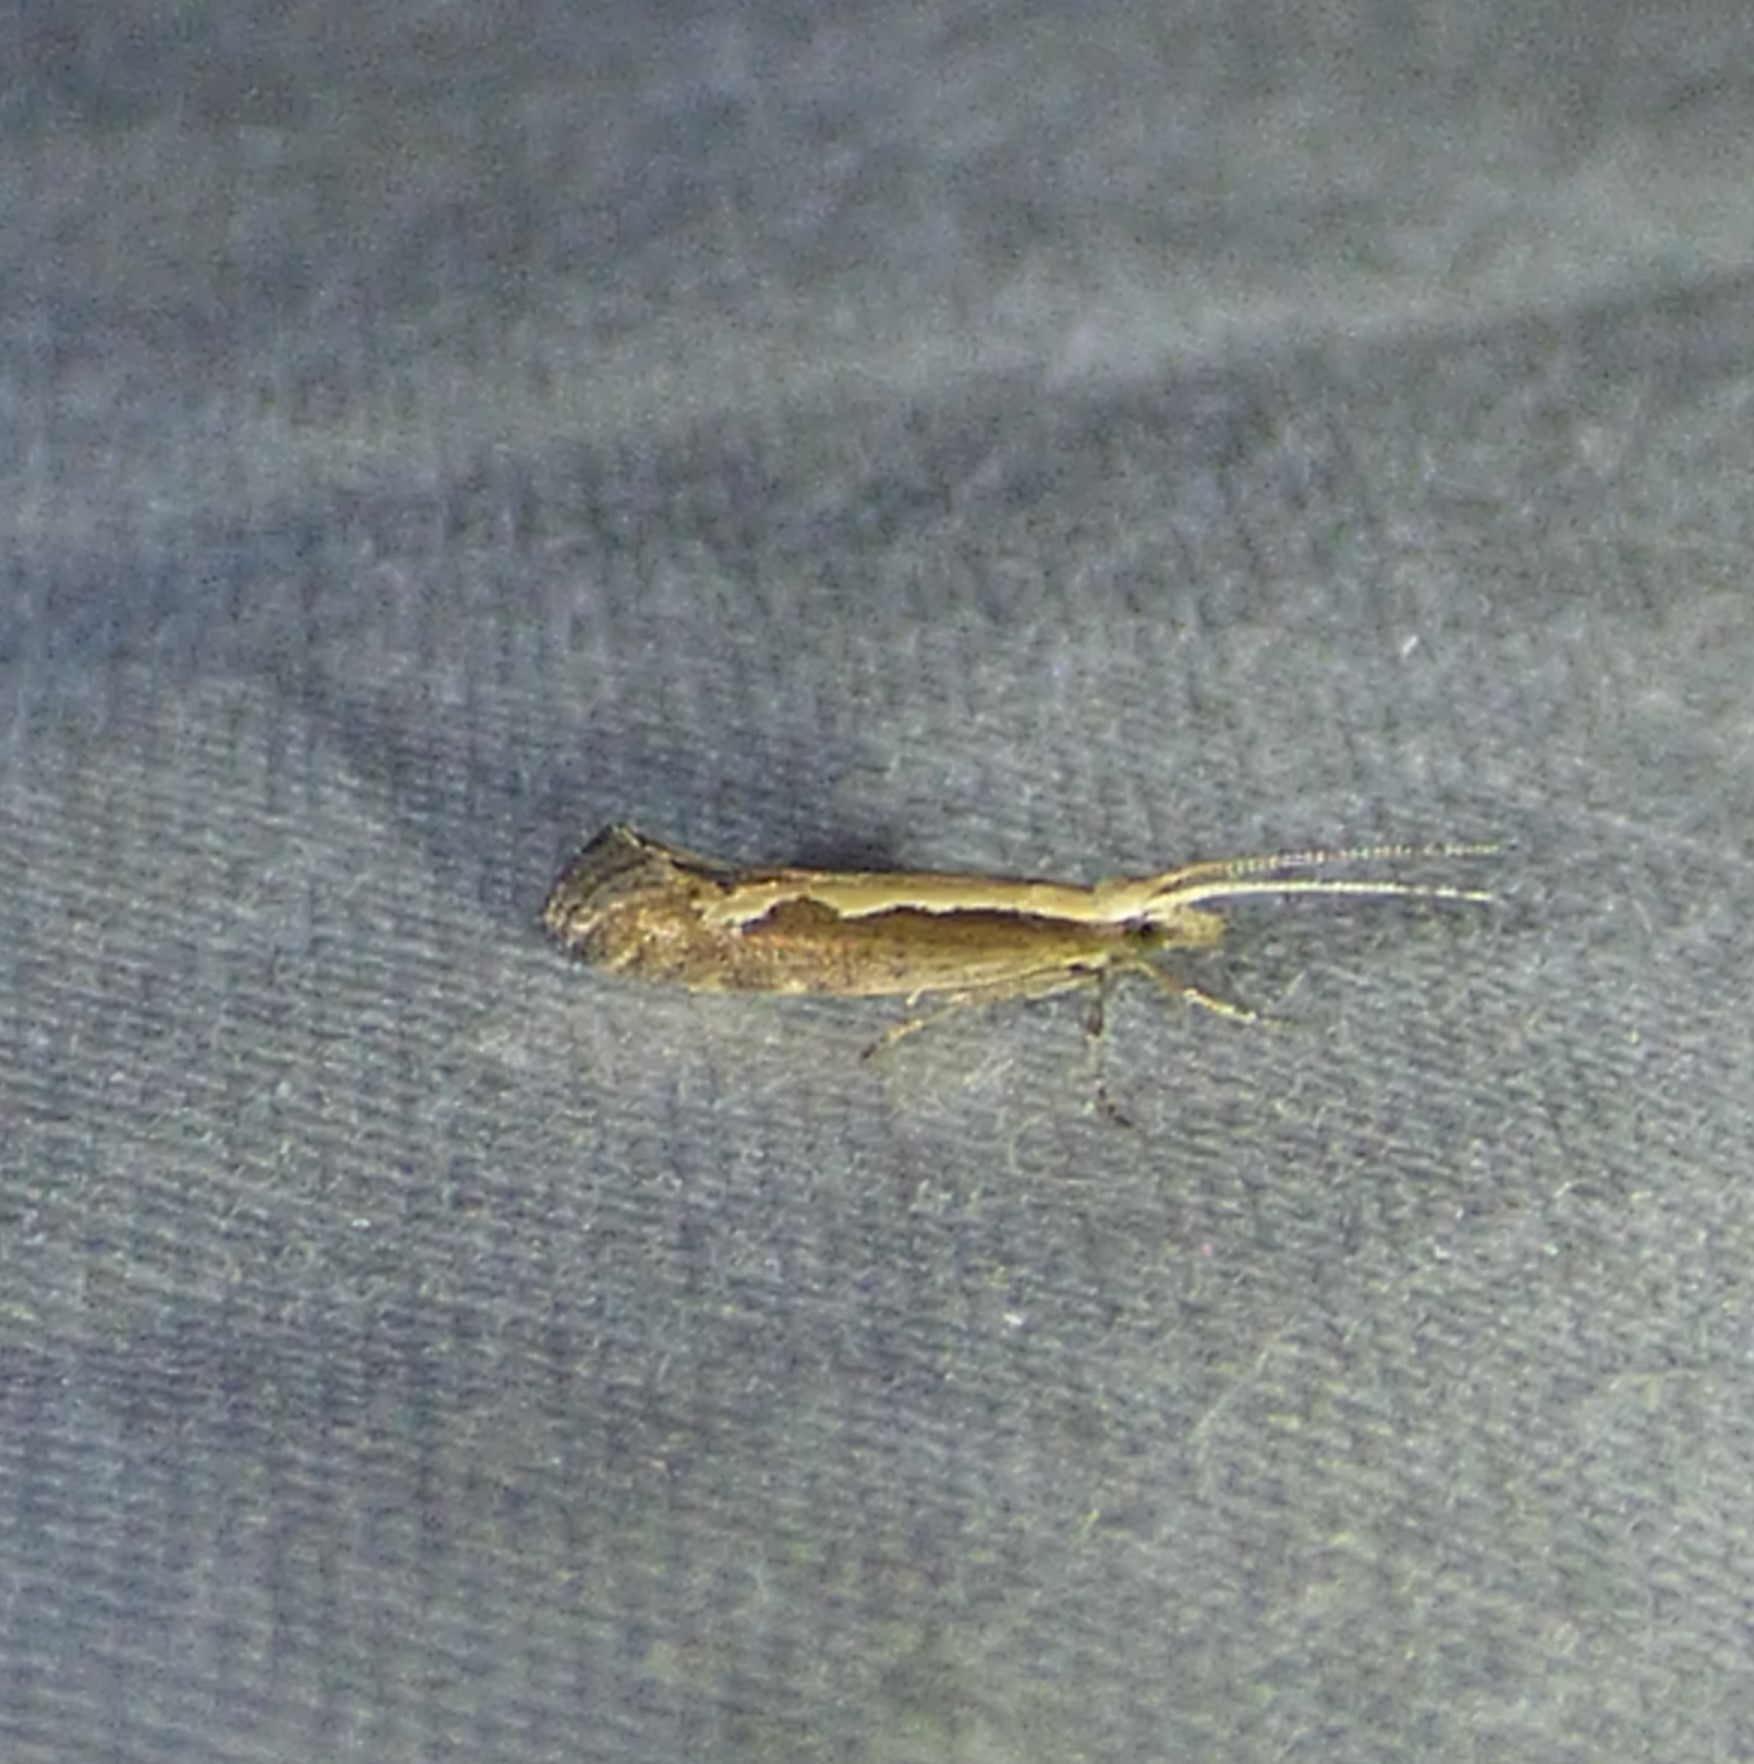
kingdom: Animalia
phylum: Arthropoda
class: Insecta
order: Lepidoptera
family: Plutellidae
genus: Plutella
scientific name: Plutella xylostella
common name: Diamond-back moth
